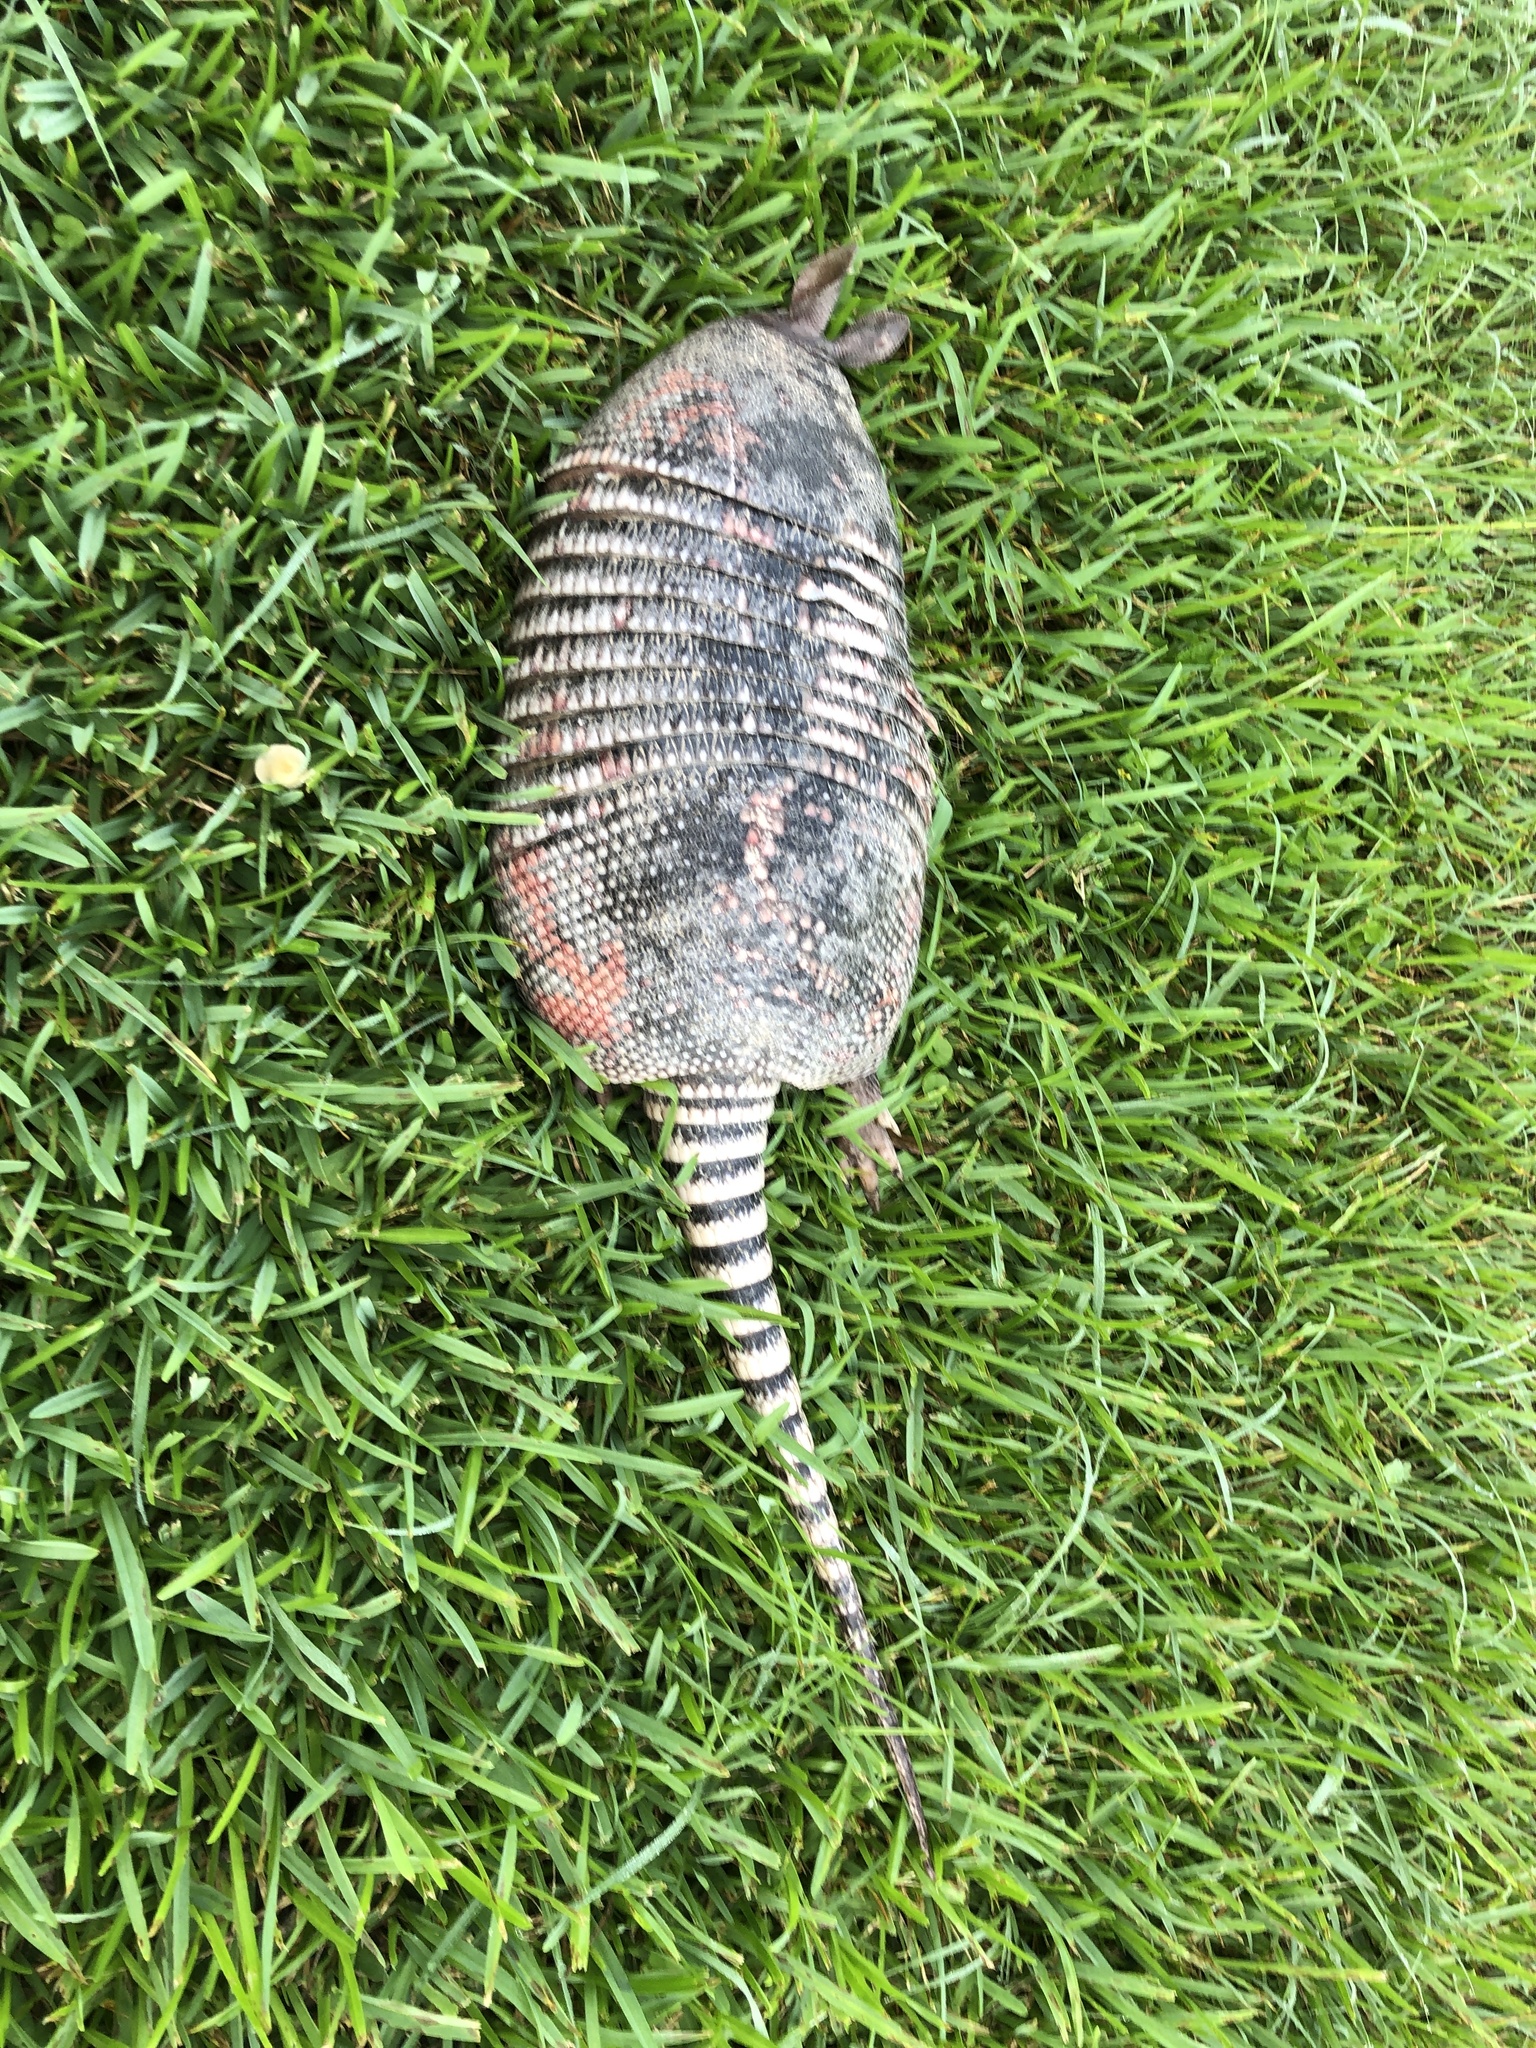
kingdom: Animalia
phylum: Chordata
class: Mammalia
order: Cingulata
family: Dasypodidae
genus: Dasypus
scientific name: Dasypus novemcinctus
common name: Nine-banded armadillo
